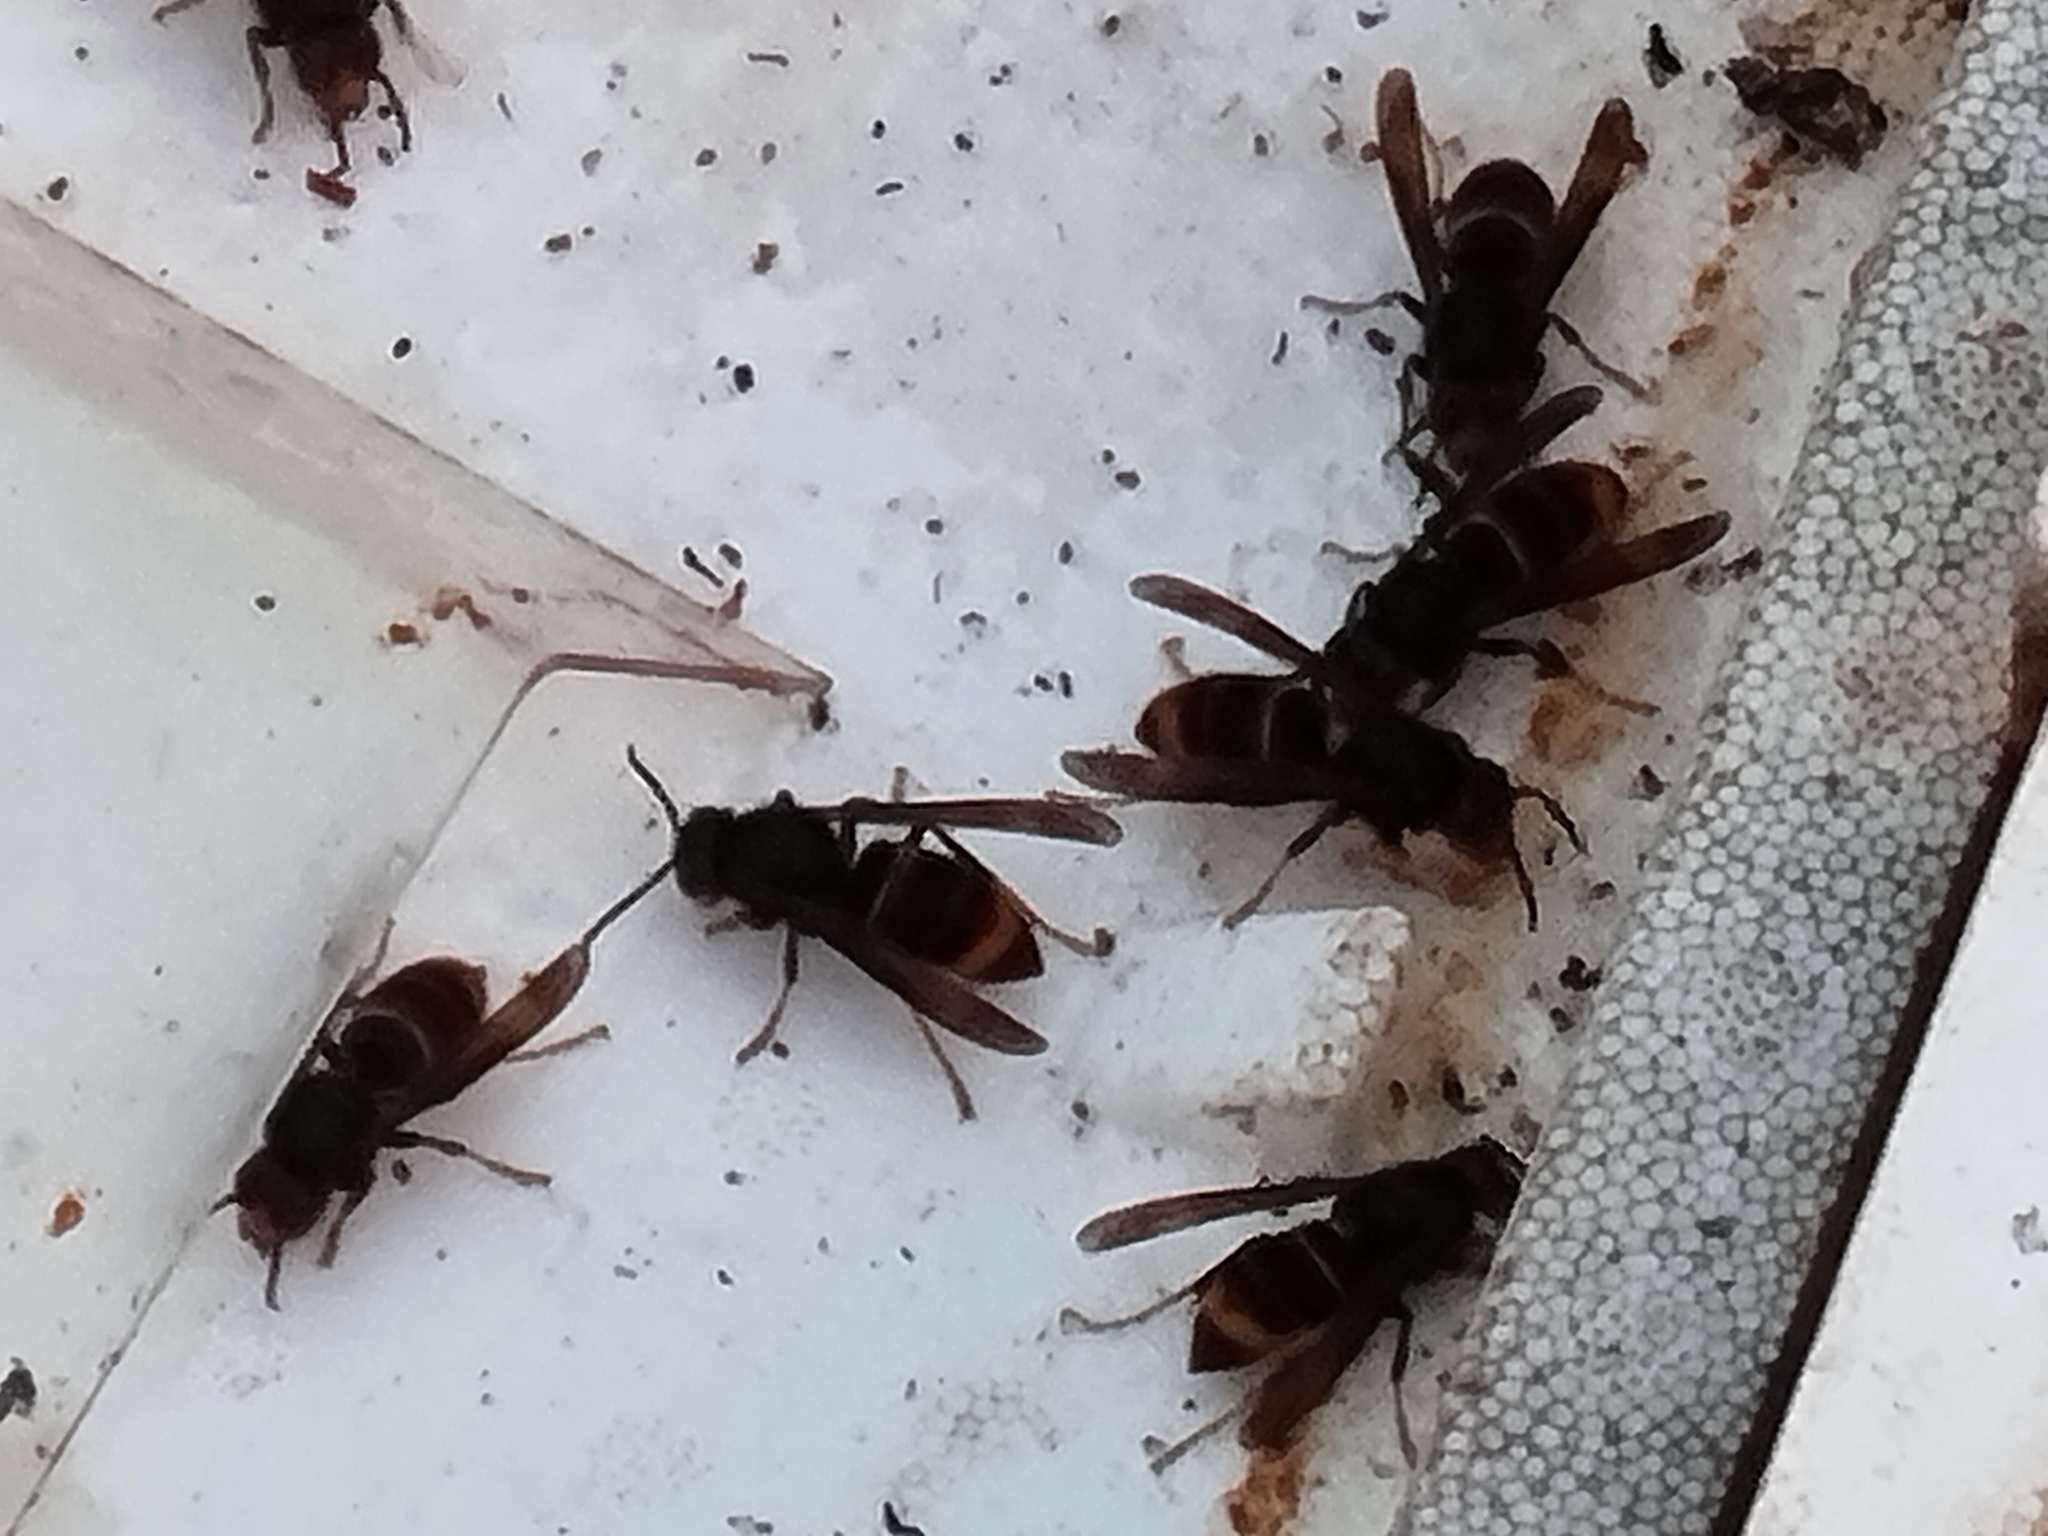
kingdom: Animalia
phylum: Arthropoda
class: Insecta
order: Hymenoptera
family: Vespidae
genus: Vespa
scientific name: Vespa velutina
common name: Asian hornet
